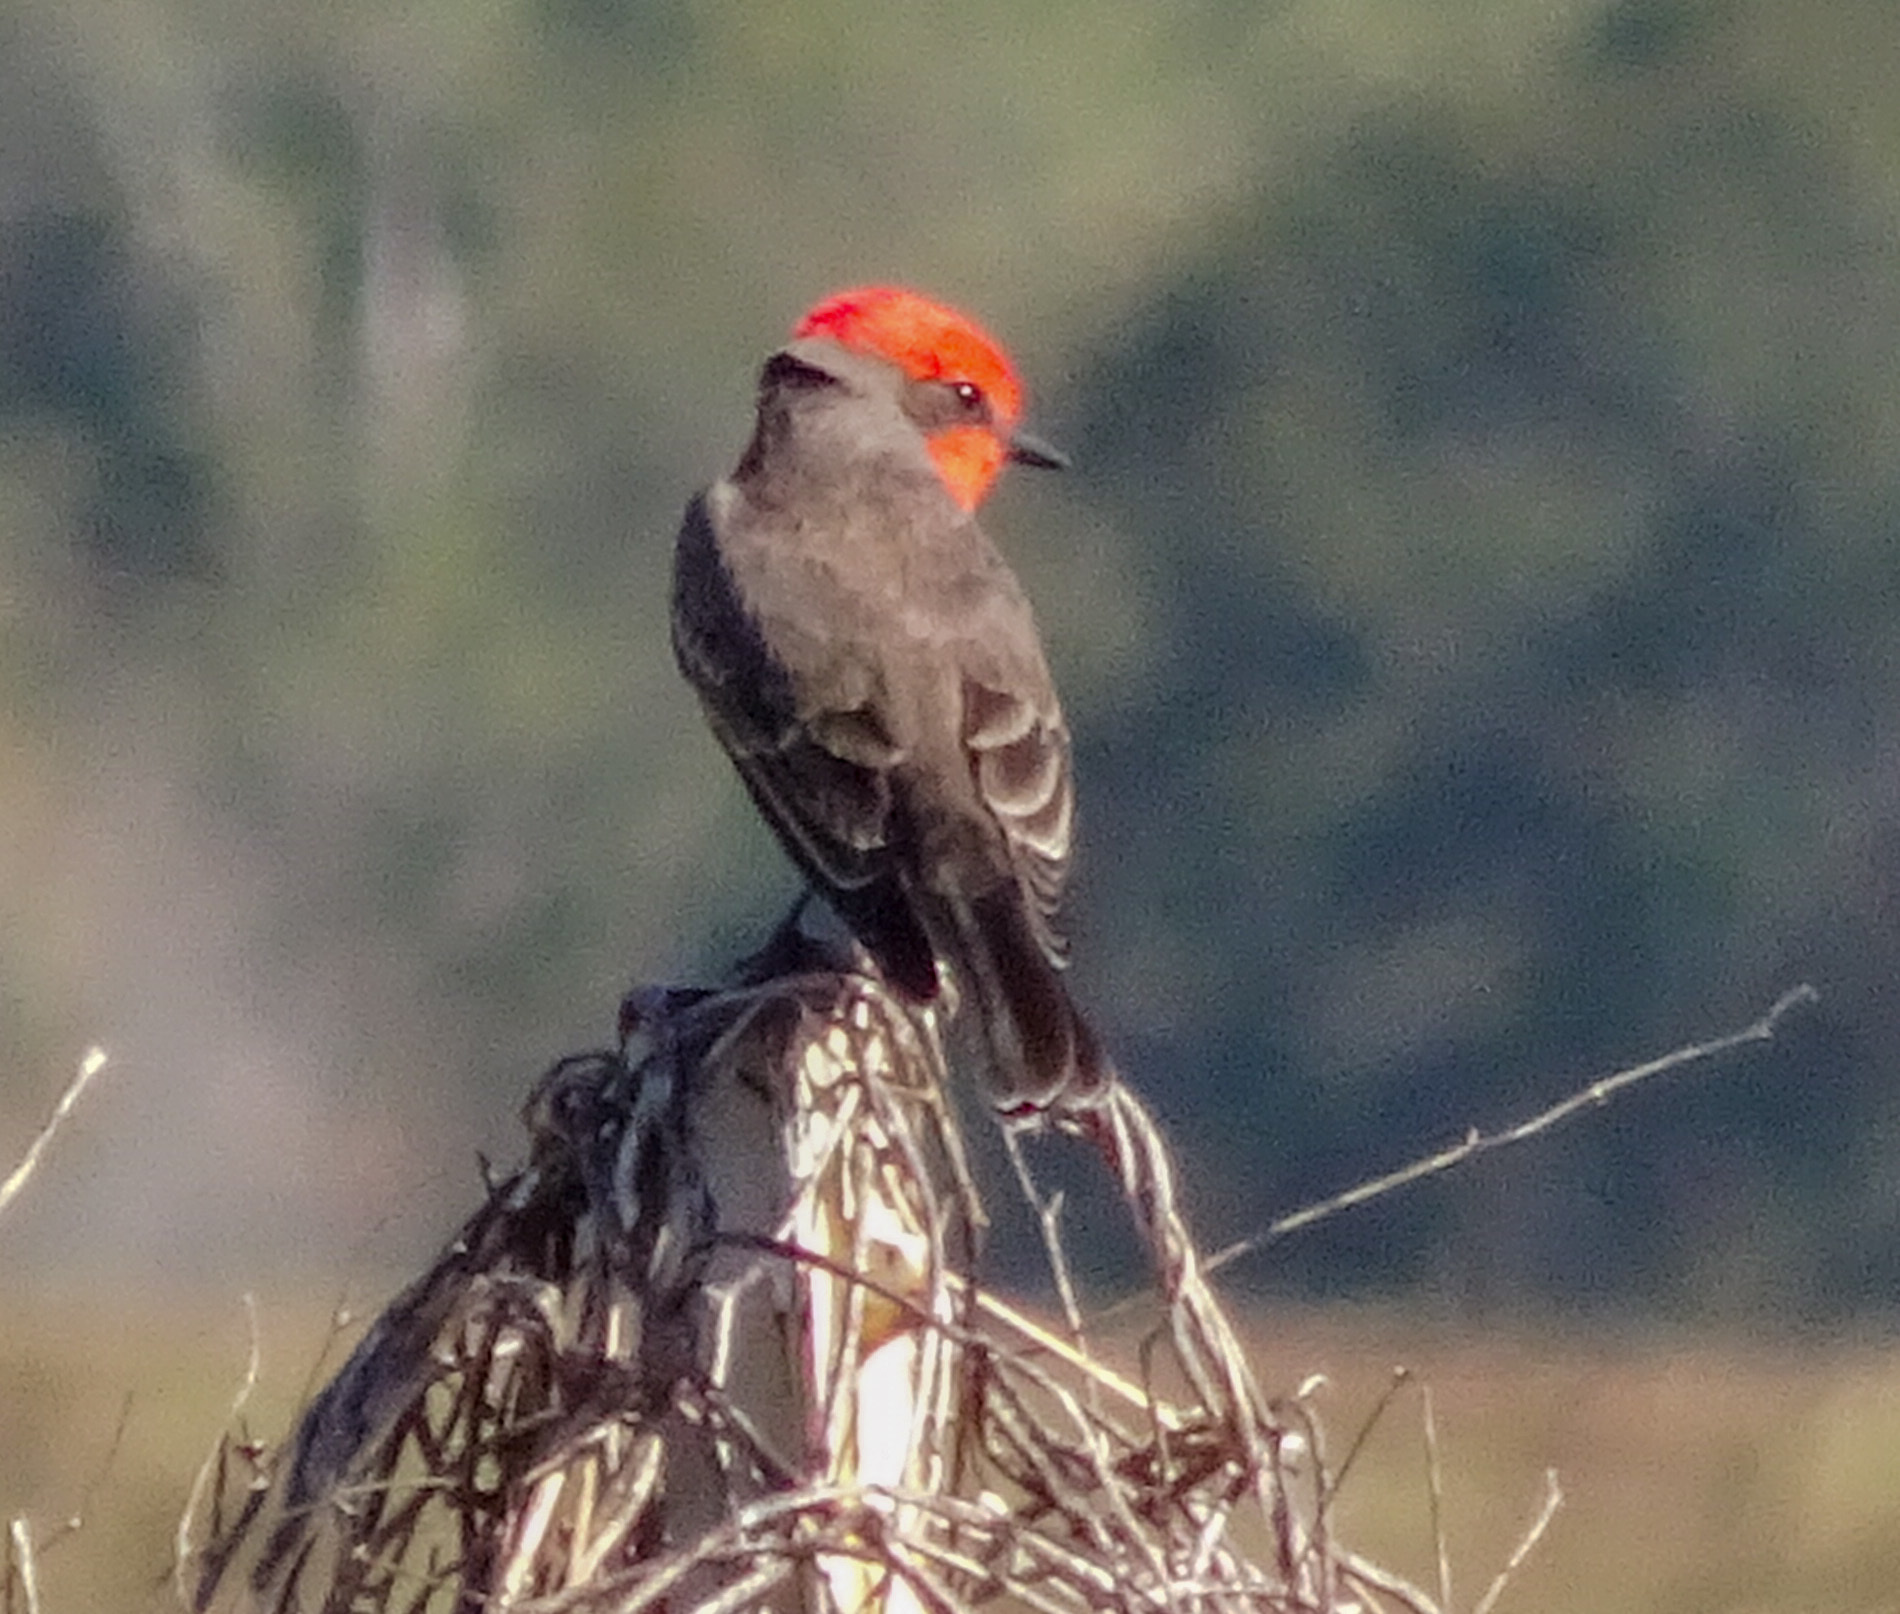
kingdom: Animalia
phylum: Chordata
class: Aves
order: Passeriformes
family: Tyrannidae
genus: Pyrocephalus
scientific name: Pyrocephalus rubinus
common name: Vermilion flycatcher
